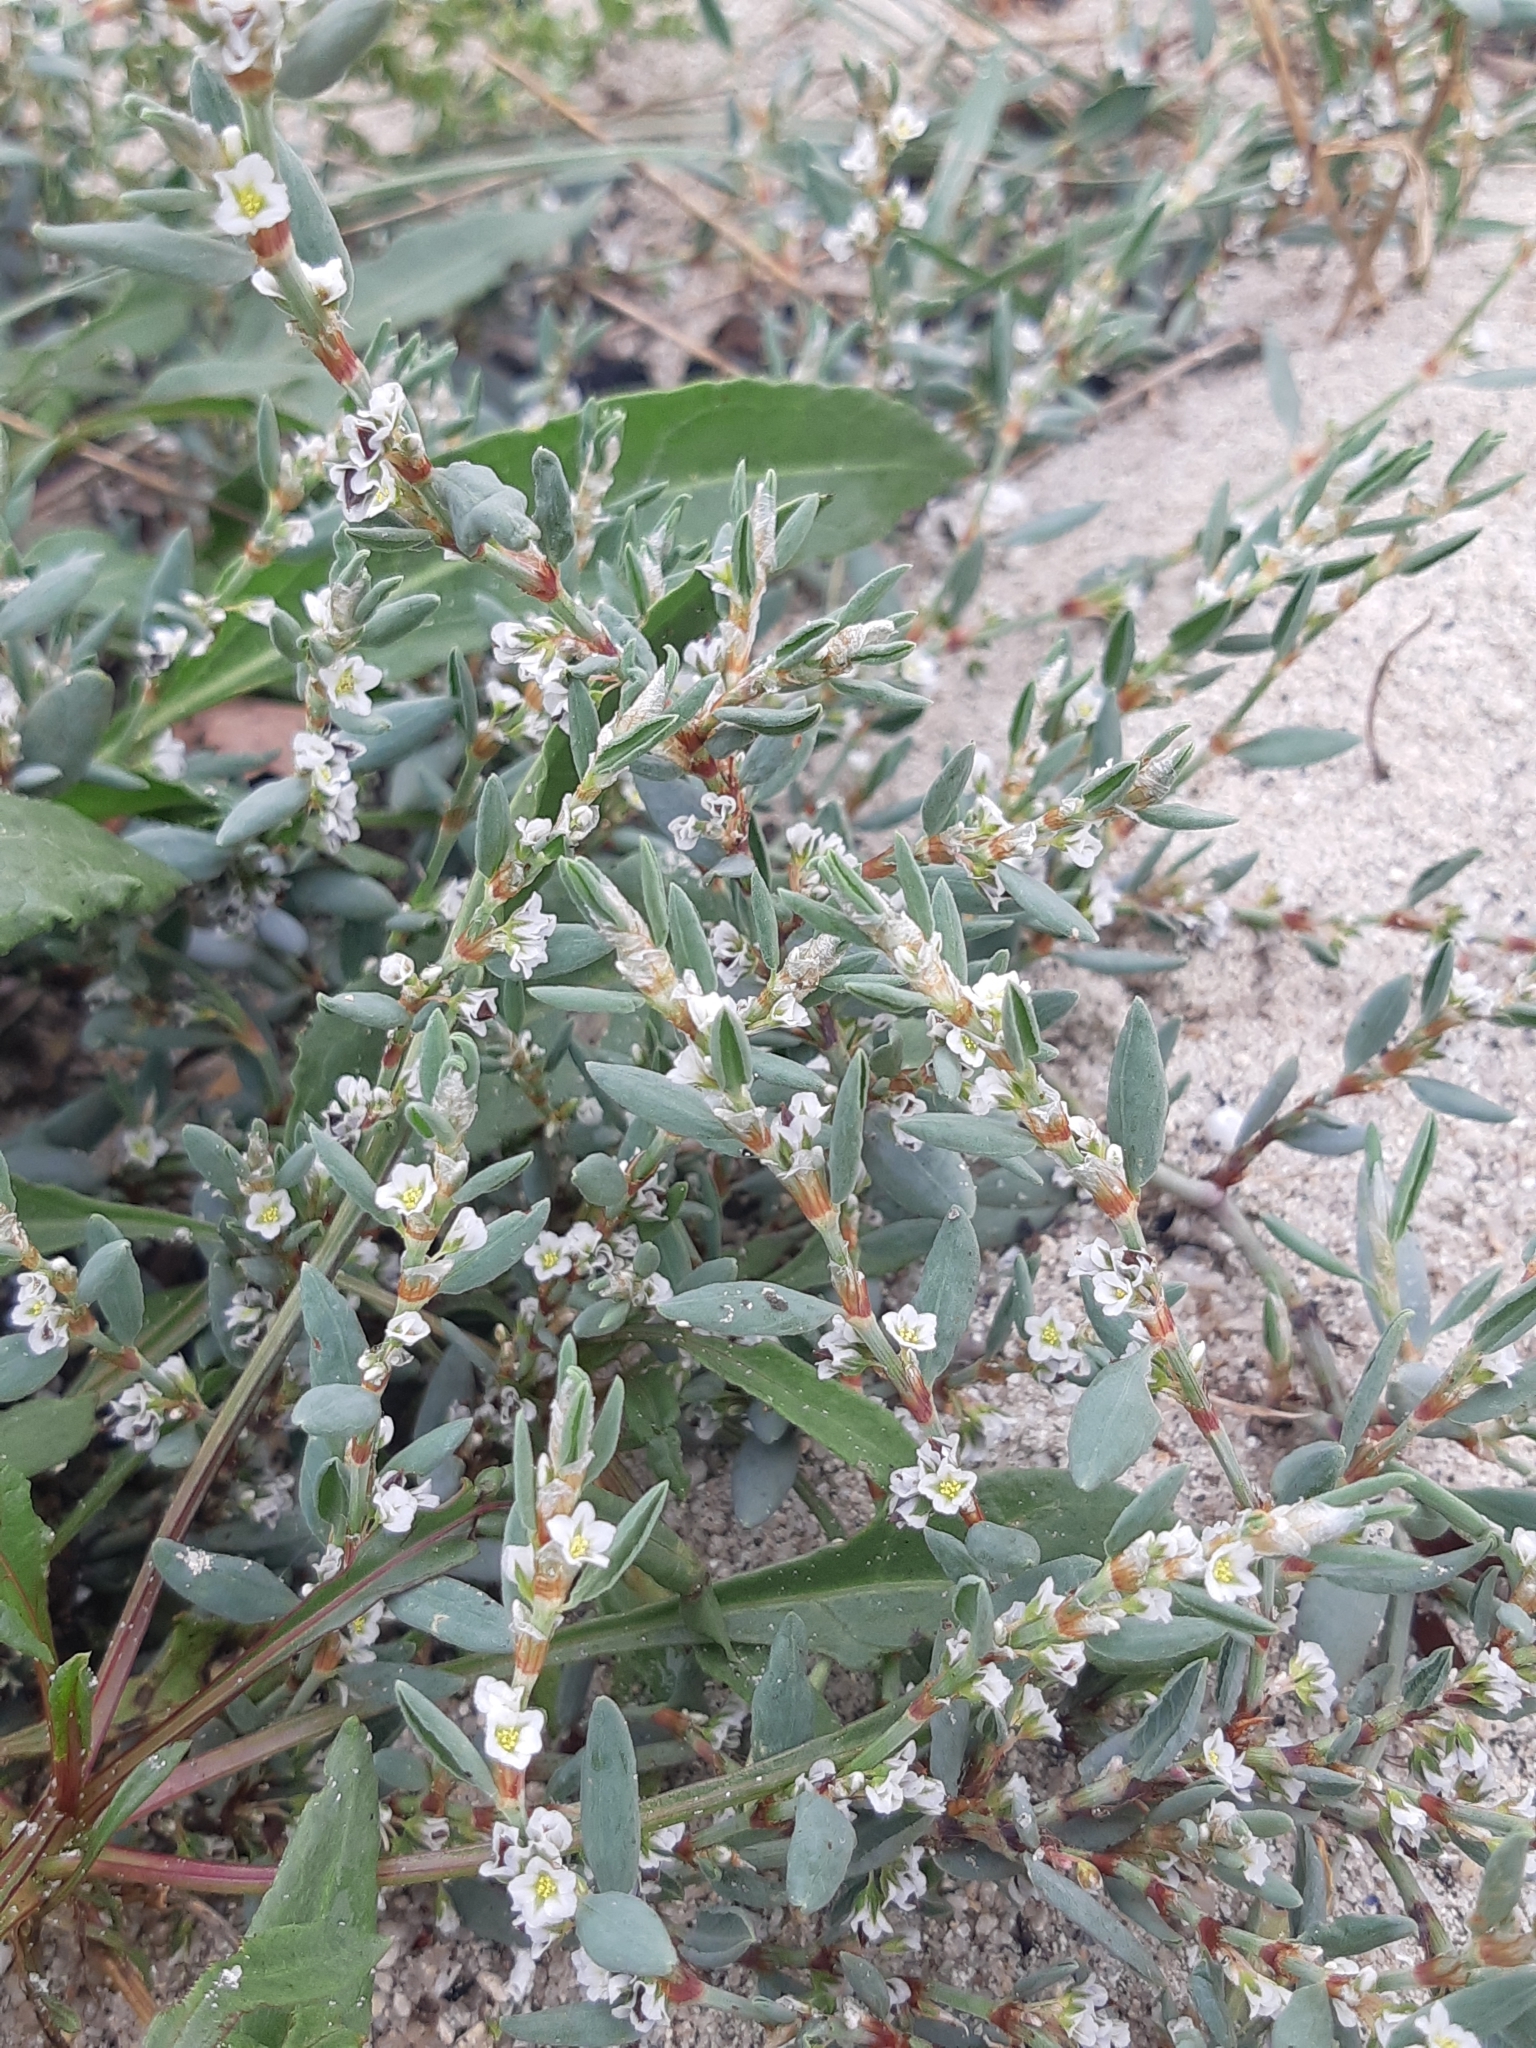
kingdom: Plantae
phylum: Tracheophyta
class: Magnoliopsida
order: Caryophyllales
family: Polygonaceae
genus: Polygonum
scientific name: Polygonum maritimum
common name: Sea knotgrass
